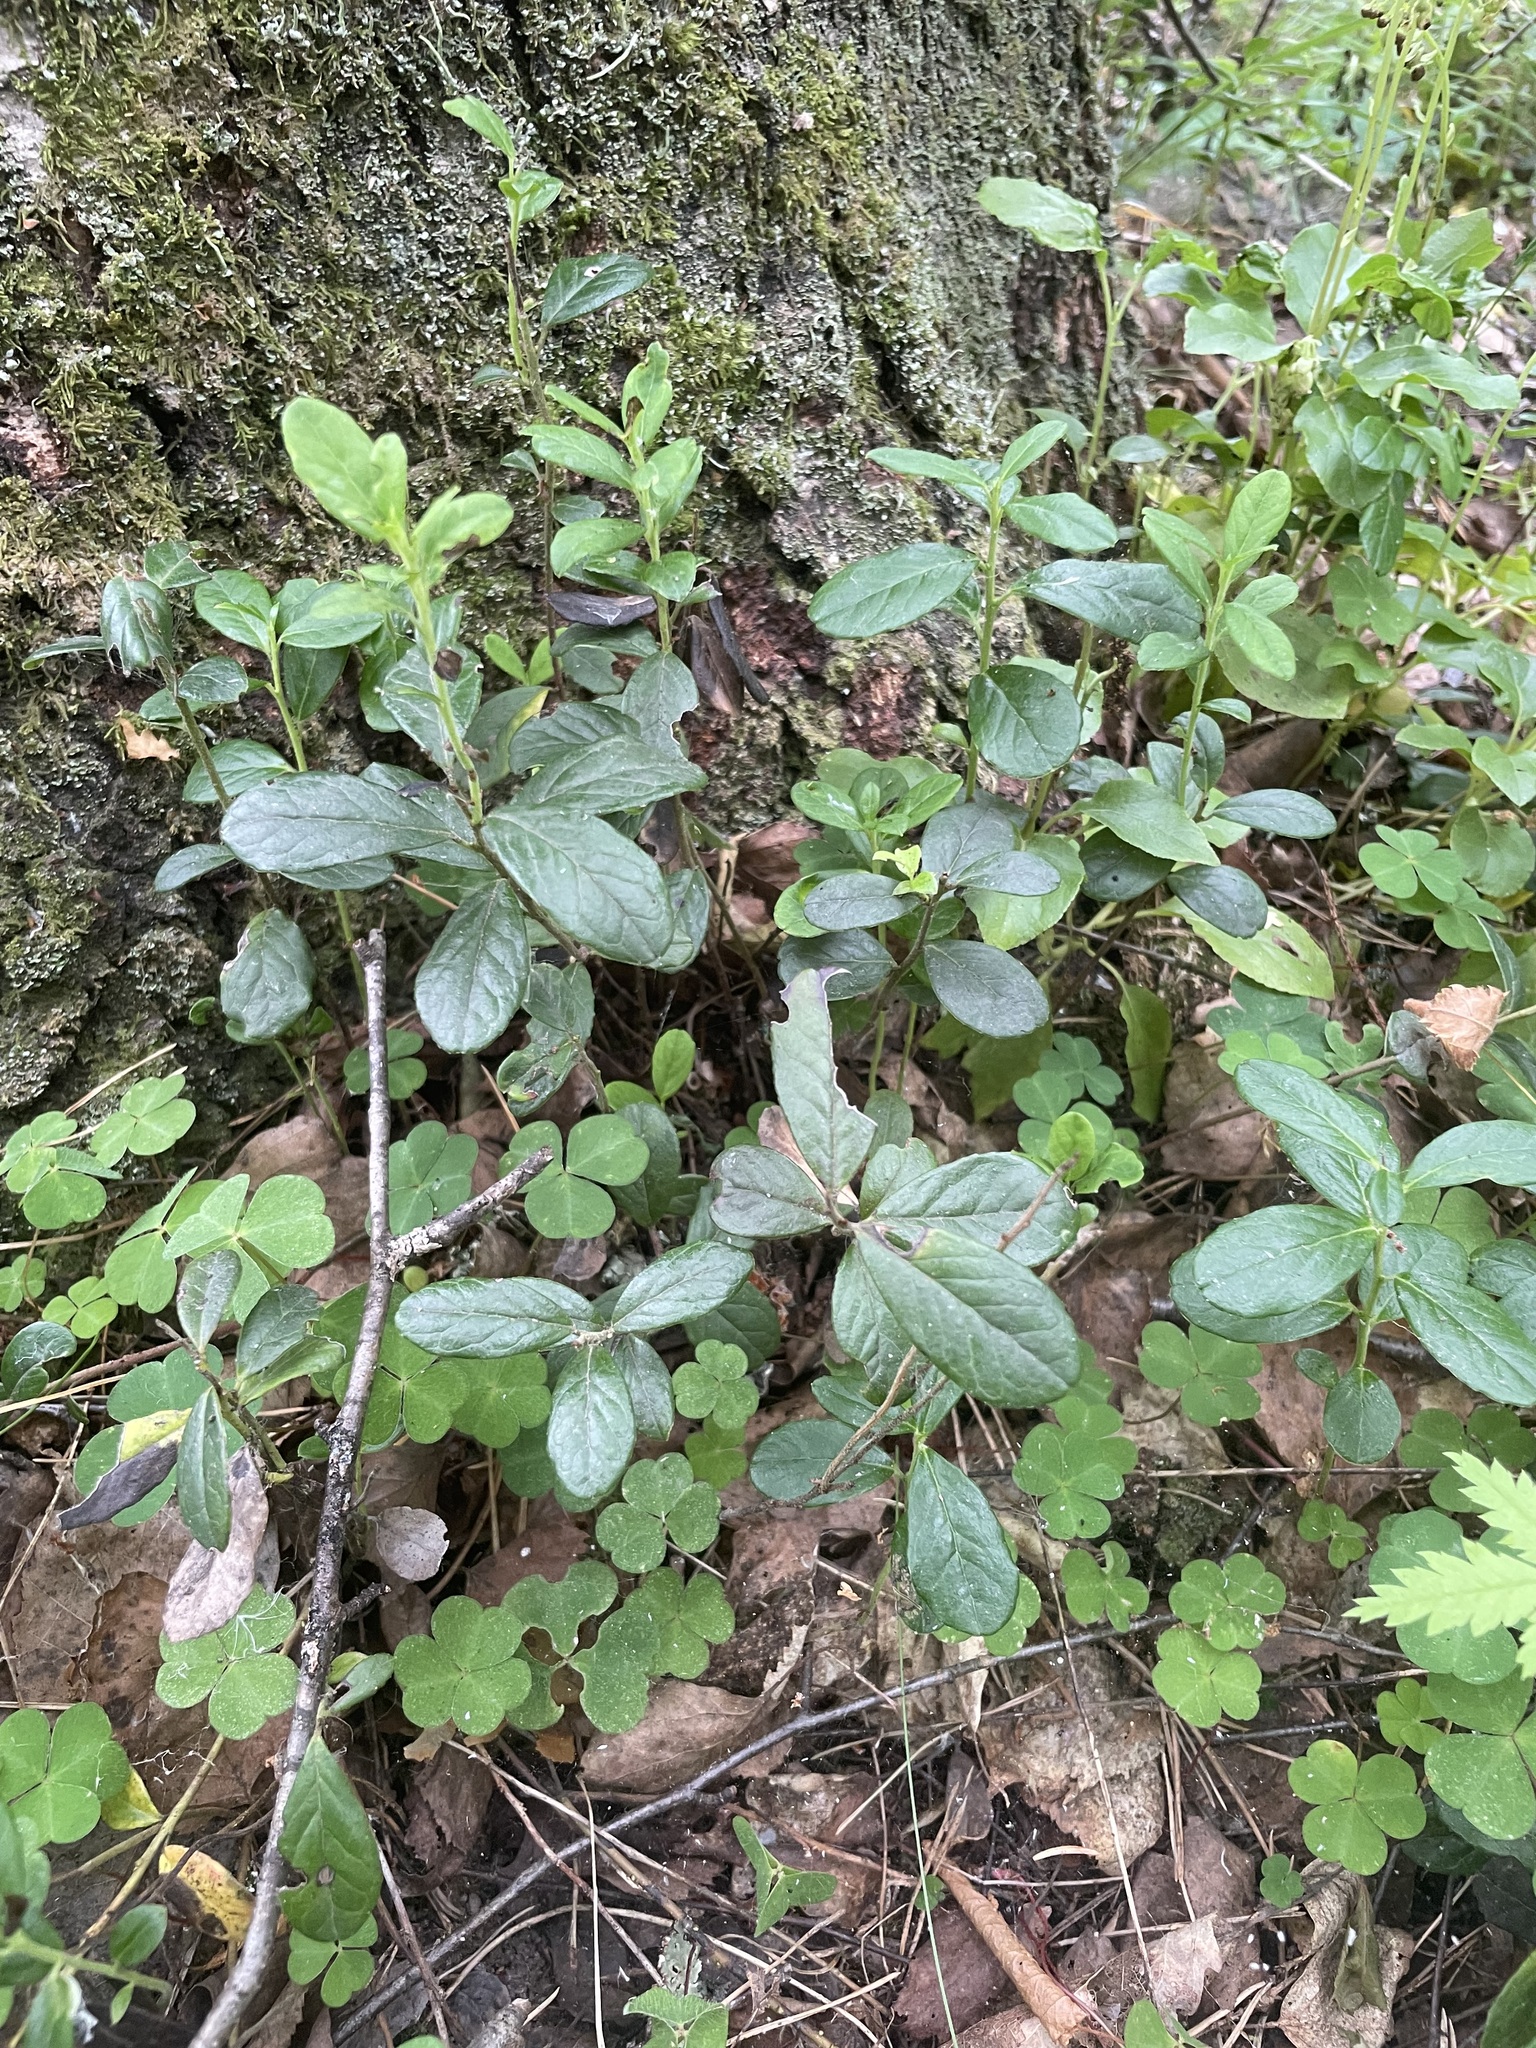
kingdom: Plantae
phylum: Tracheophyta
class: Magnoliopsida
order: Ericales
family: Ericaceae
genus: Vaccinium
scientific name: Vaccinium vitis-idaea
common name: Cowberry
